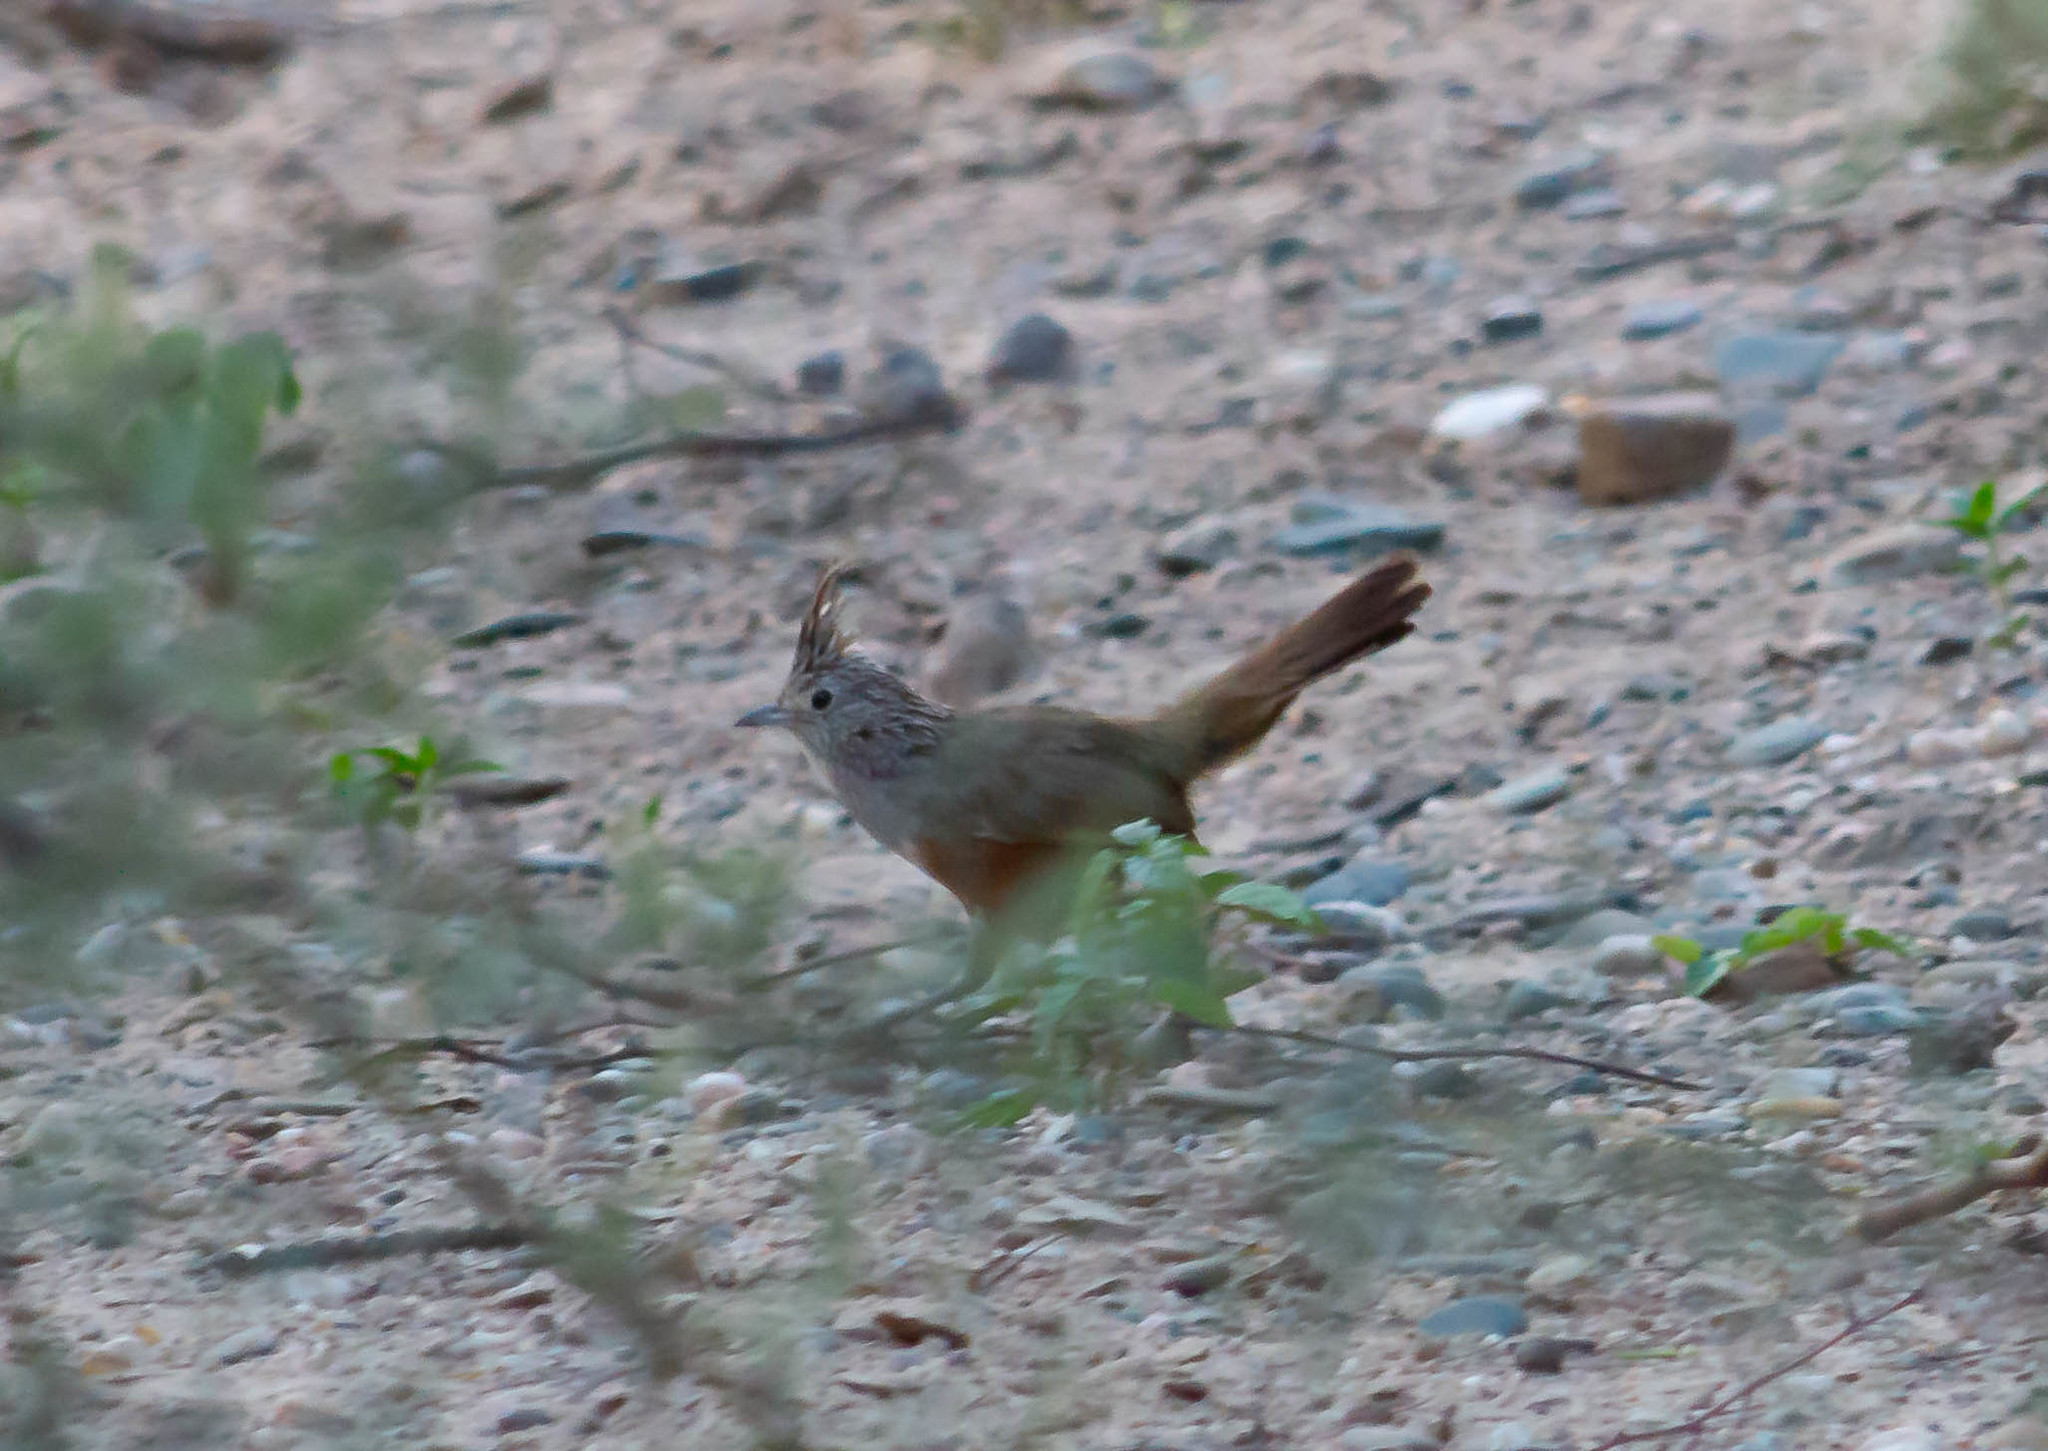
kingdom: Animalia
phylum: Chordata
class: Aves
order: Passeriformes
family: Rhinocryptidae
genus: Rhinocrypta
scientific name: Rhinocrypta lanceolata
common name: Crested gallito
